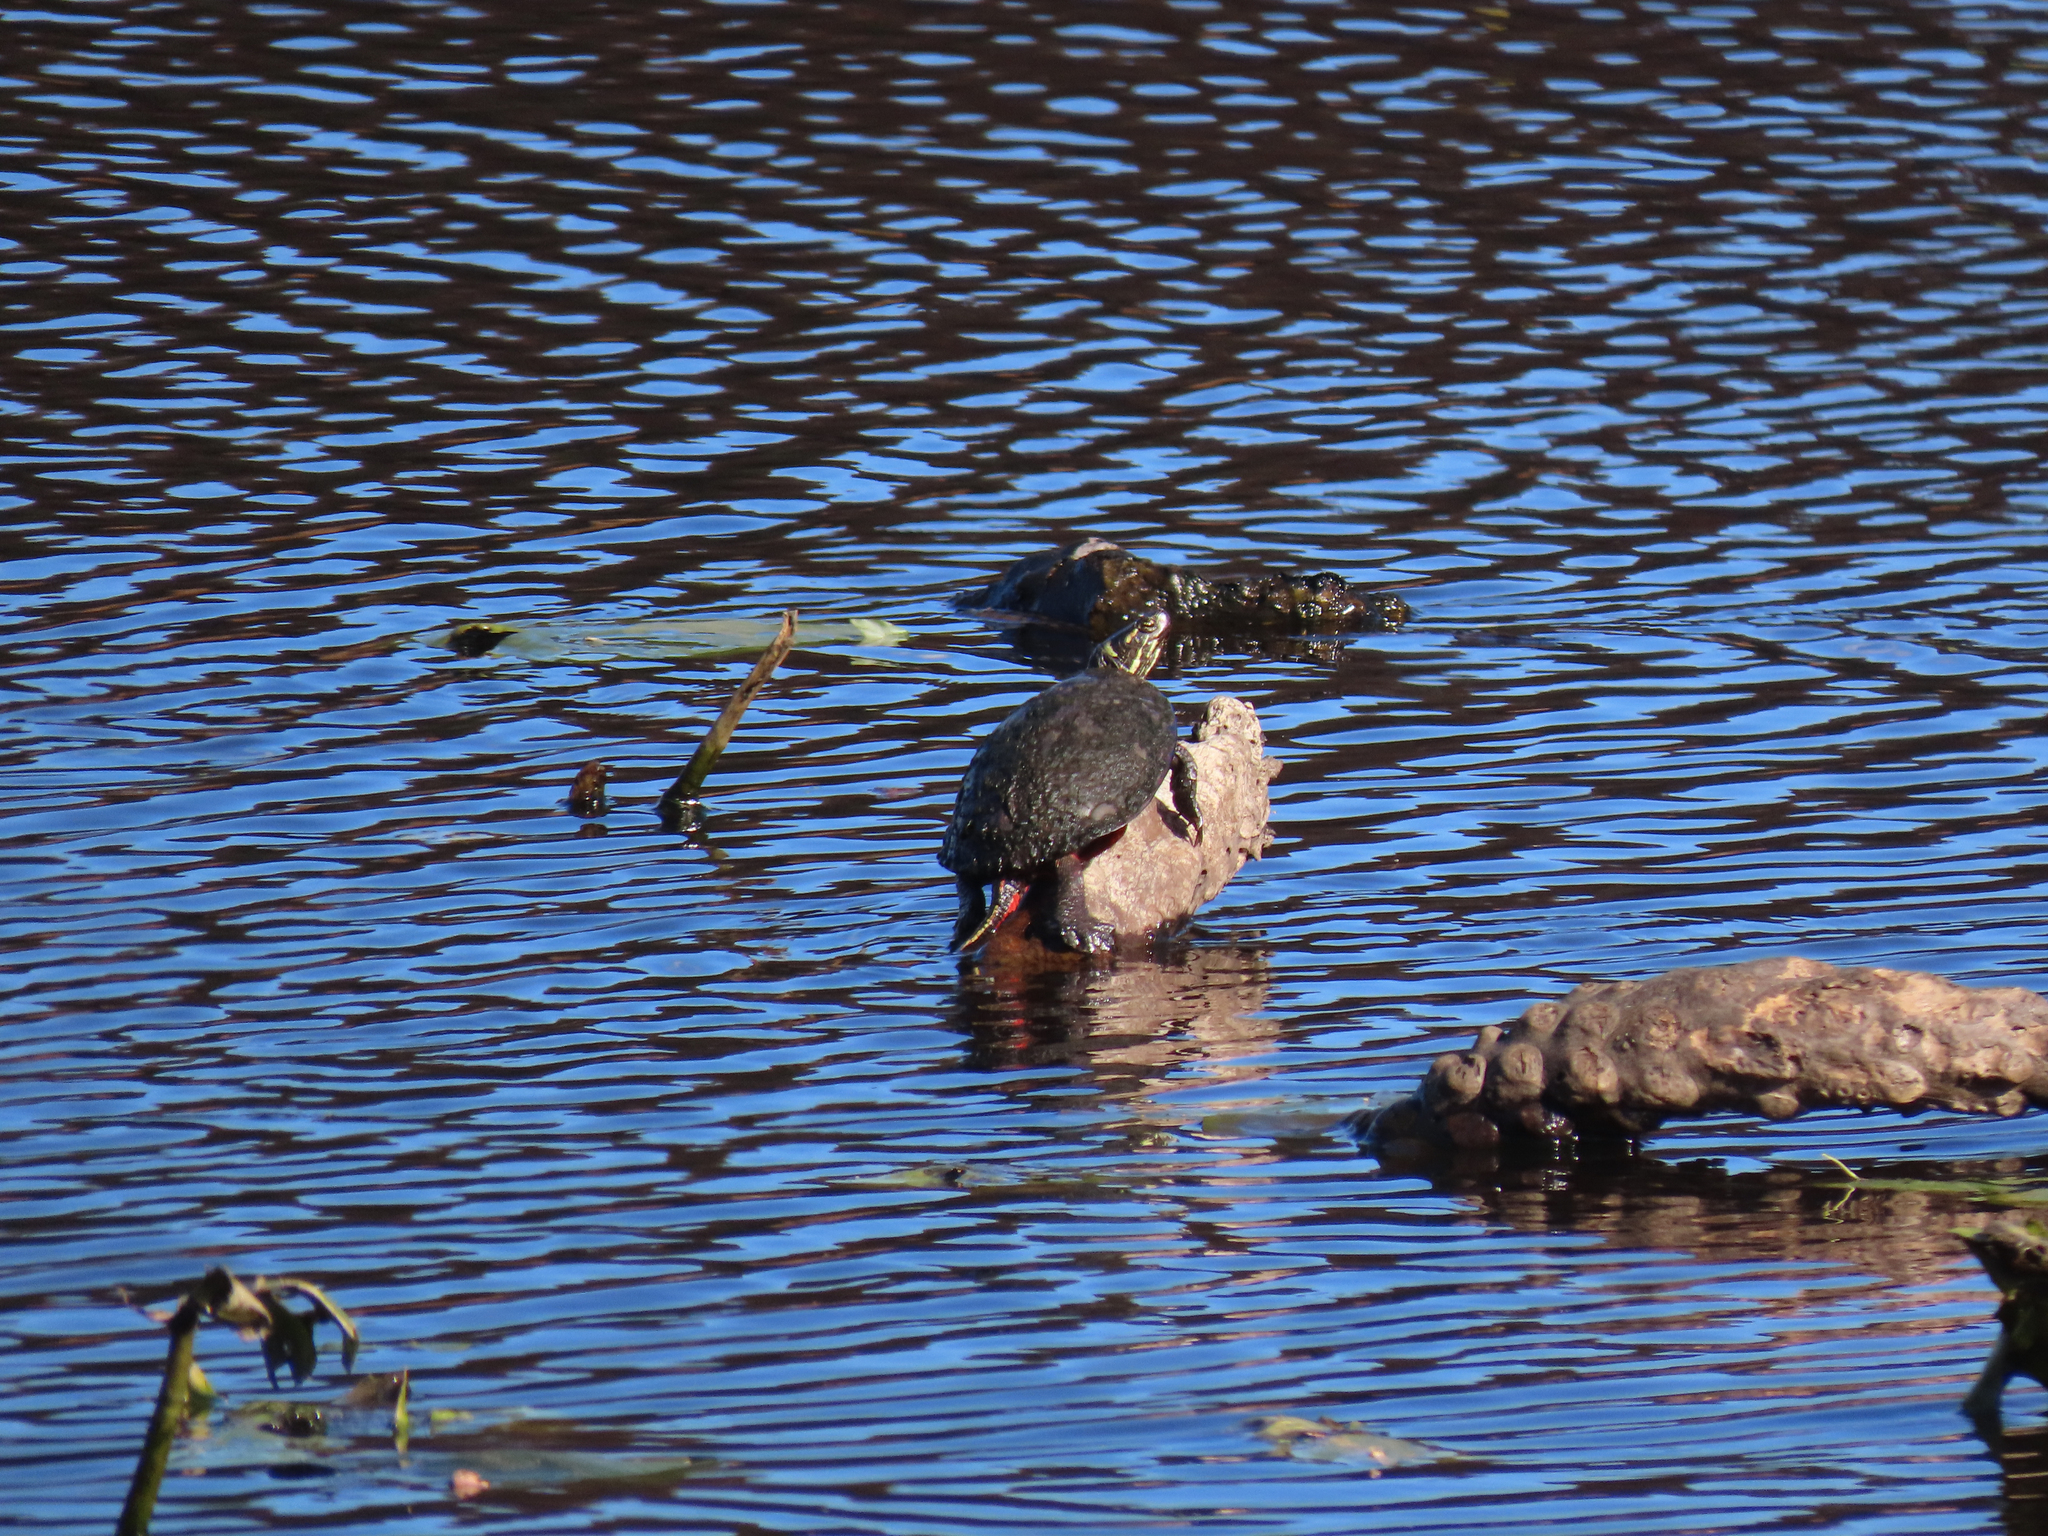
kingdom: Animalia
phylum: Chordata
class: Testudines
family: Emydidae
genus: Chrysemys
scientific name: Chrysemys picta
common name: Painted turtle
